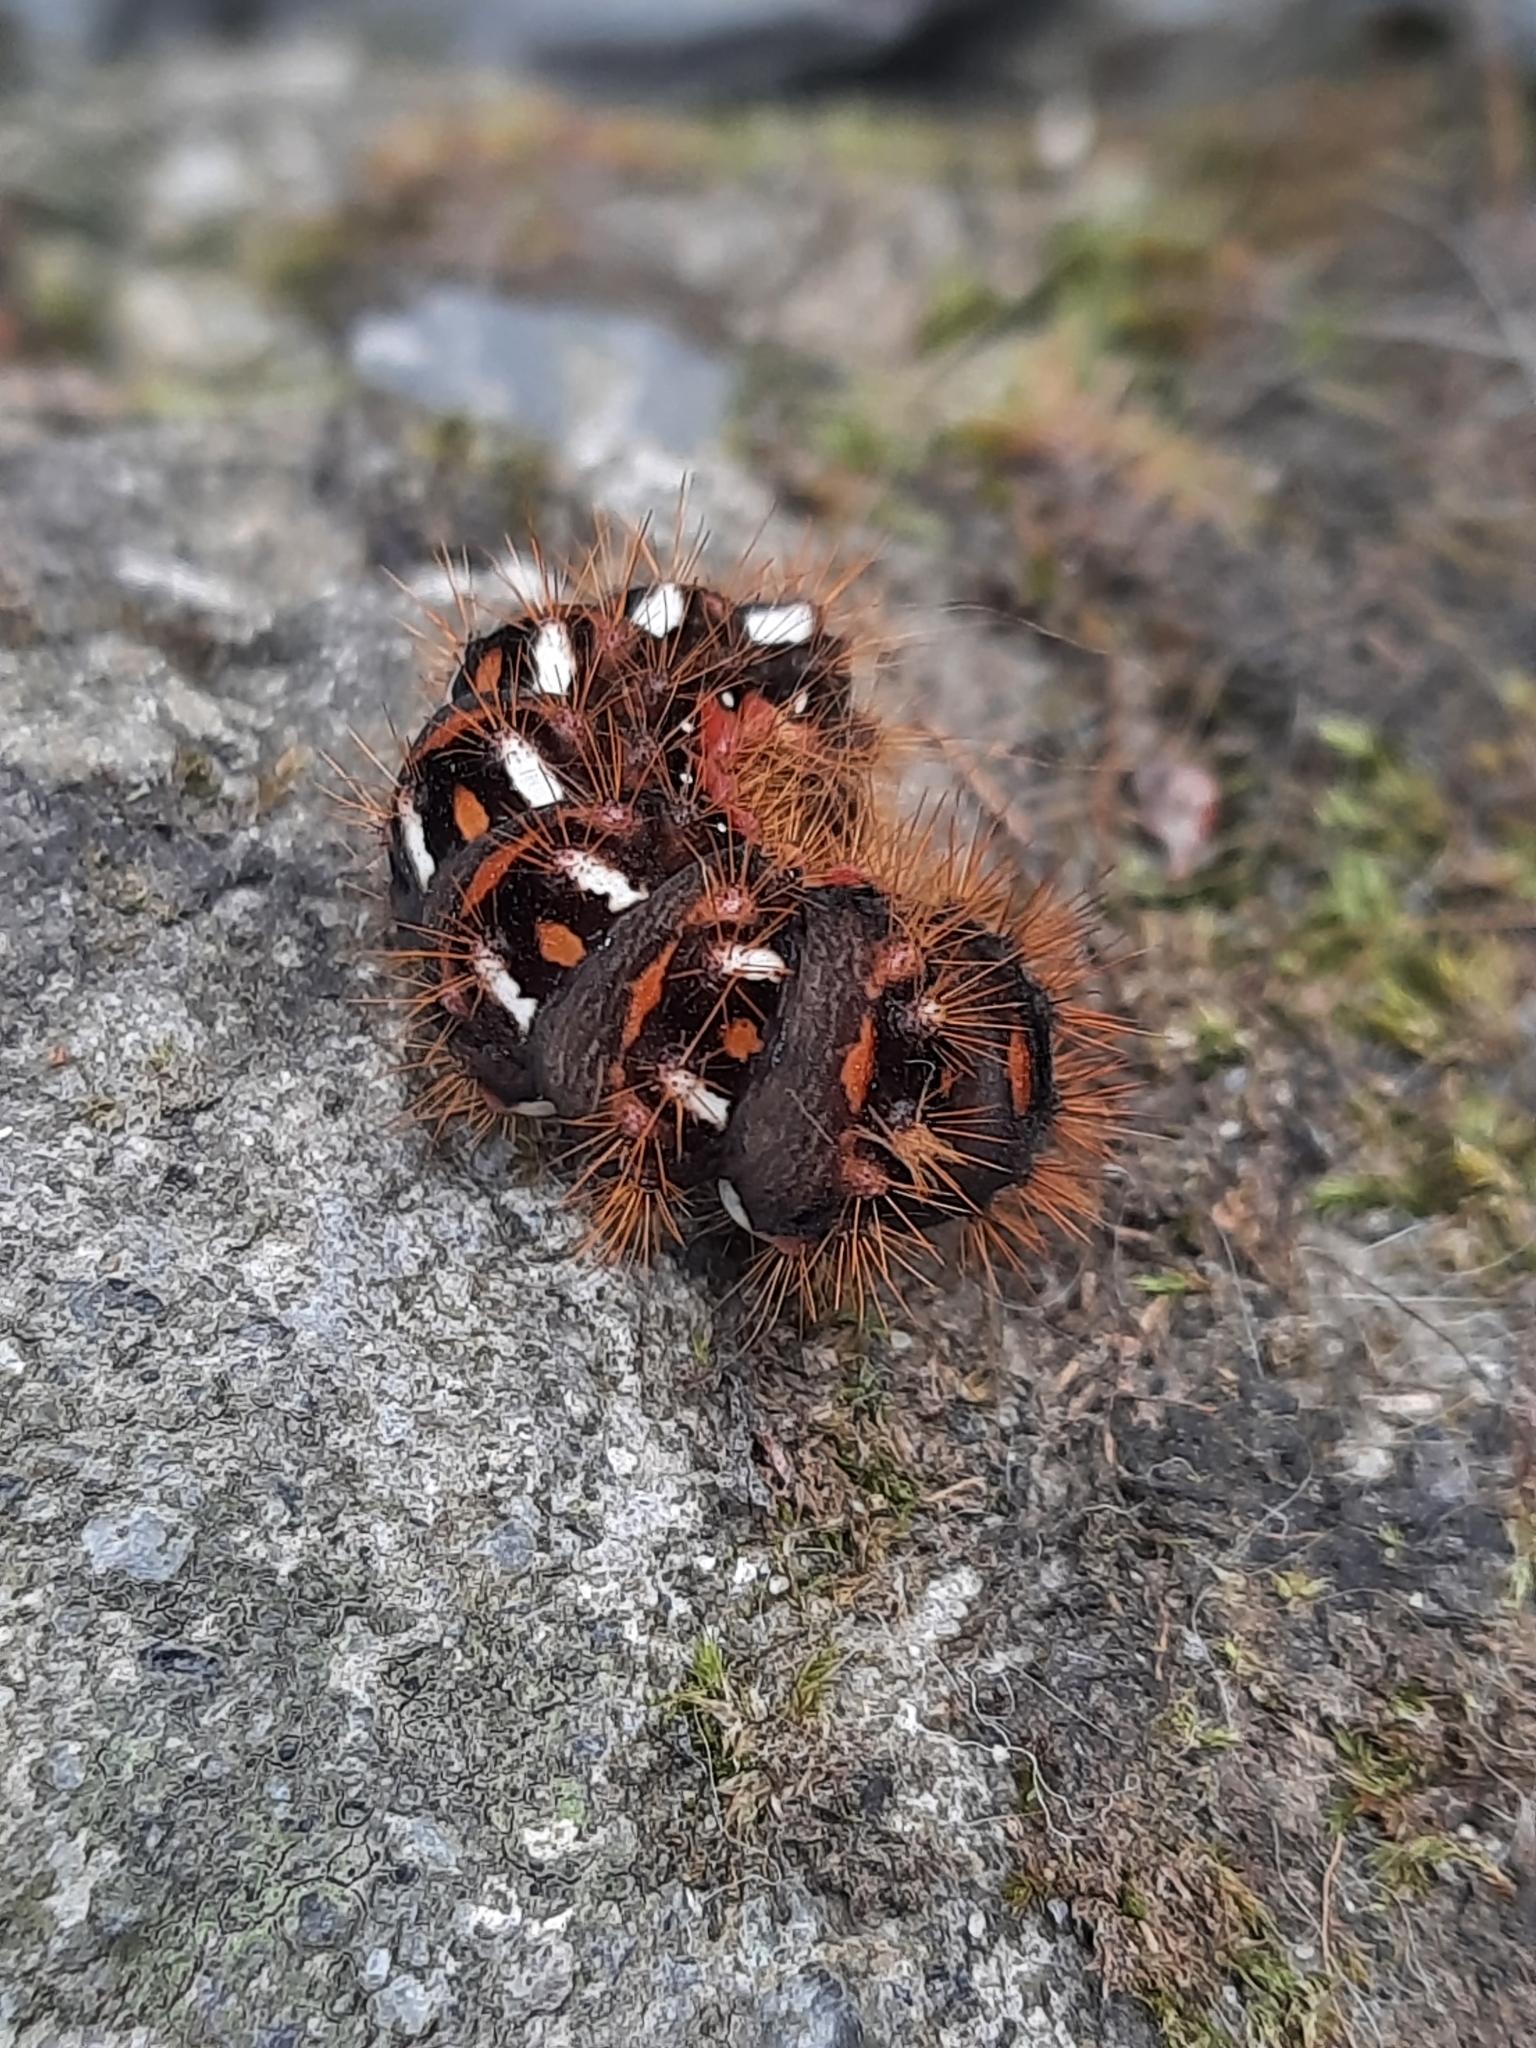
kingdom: Animalia
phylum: Arthropoda
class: Insecta
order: Lepidoptera
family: Noctuidae
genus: Acronicta
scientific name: Acronicta rumicis
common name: Knot grass
